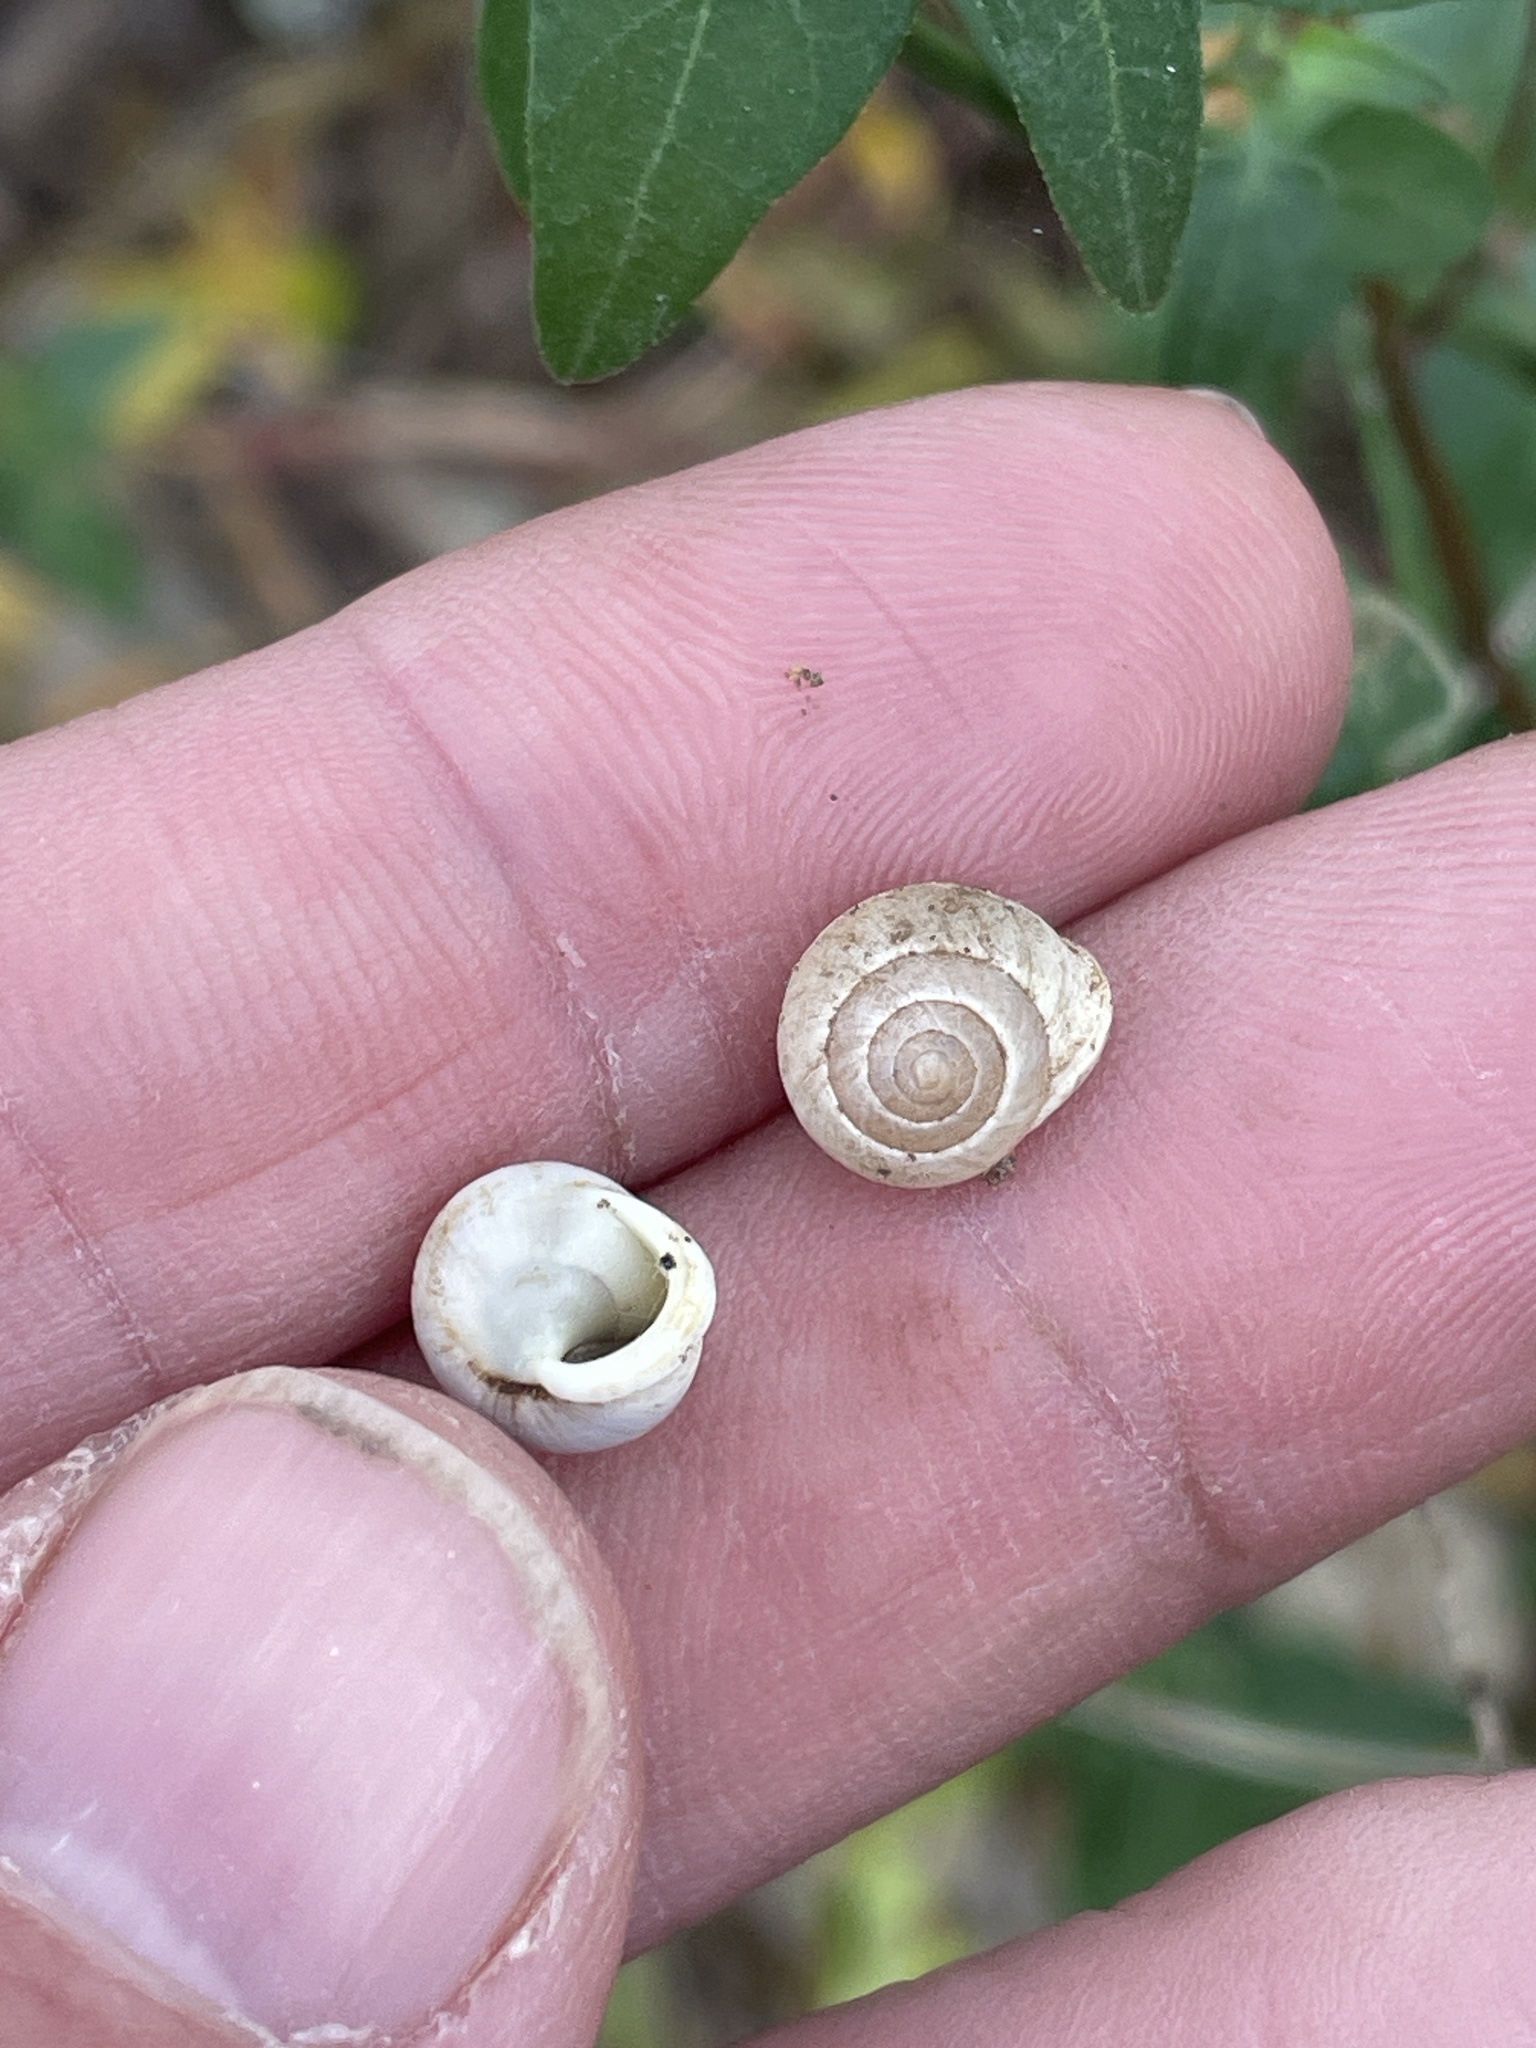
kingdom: Animalia
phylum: Mollusca
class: Gastropoda
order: Cycloneritida
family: Helicinidae
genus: Helicina
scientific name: Helicina orbiculata
